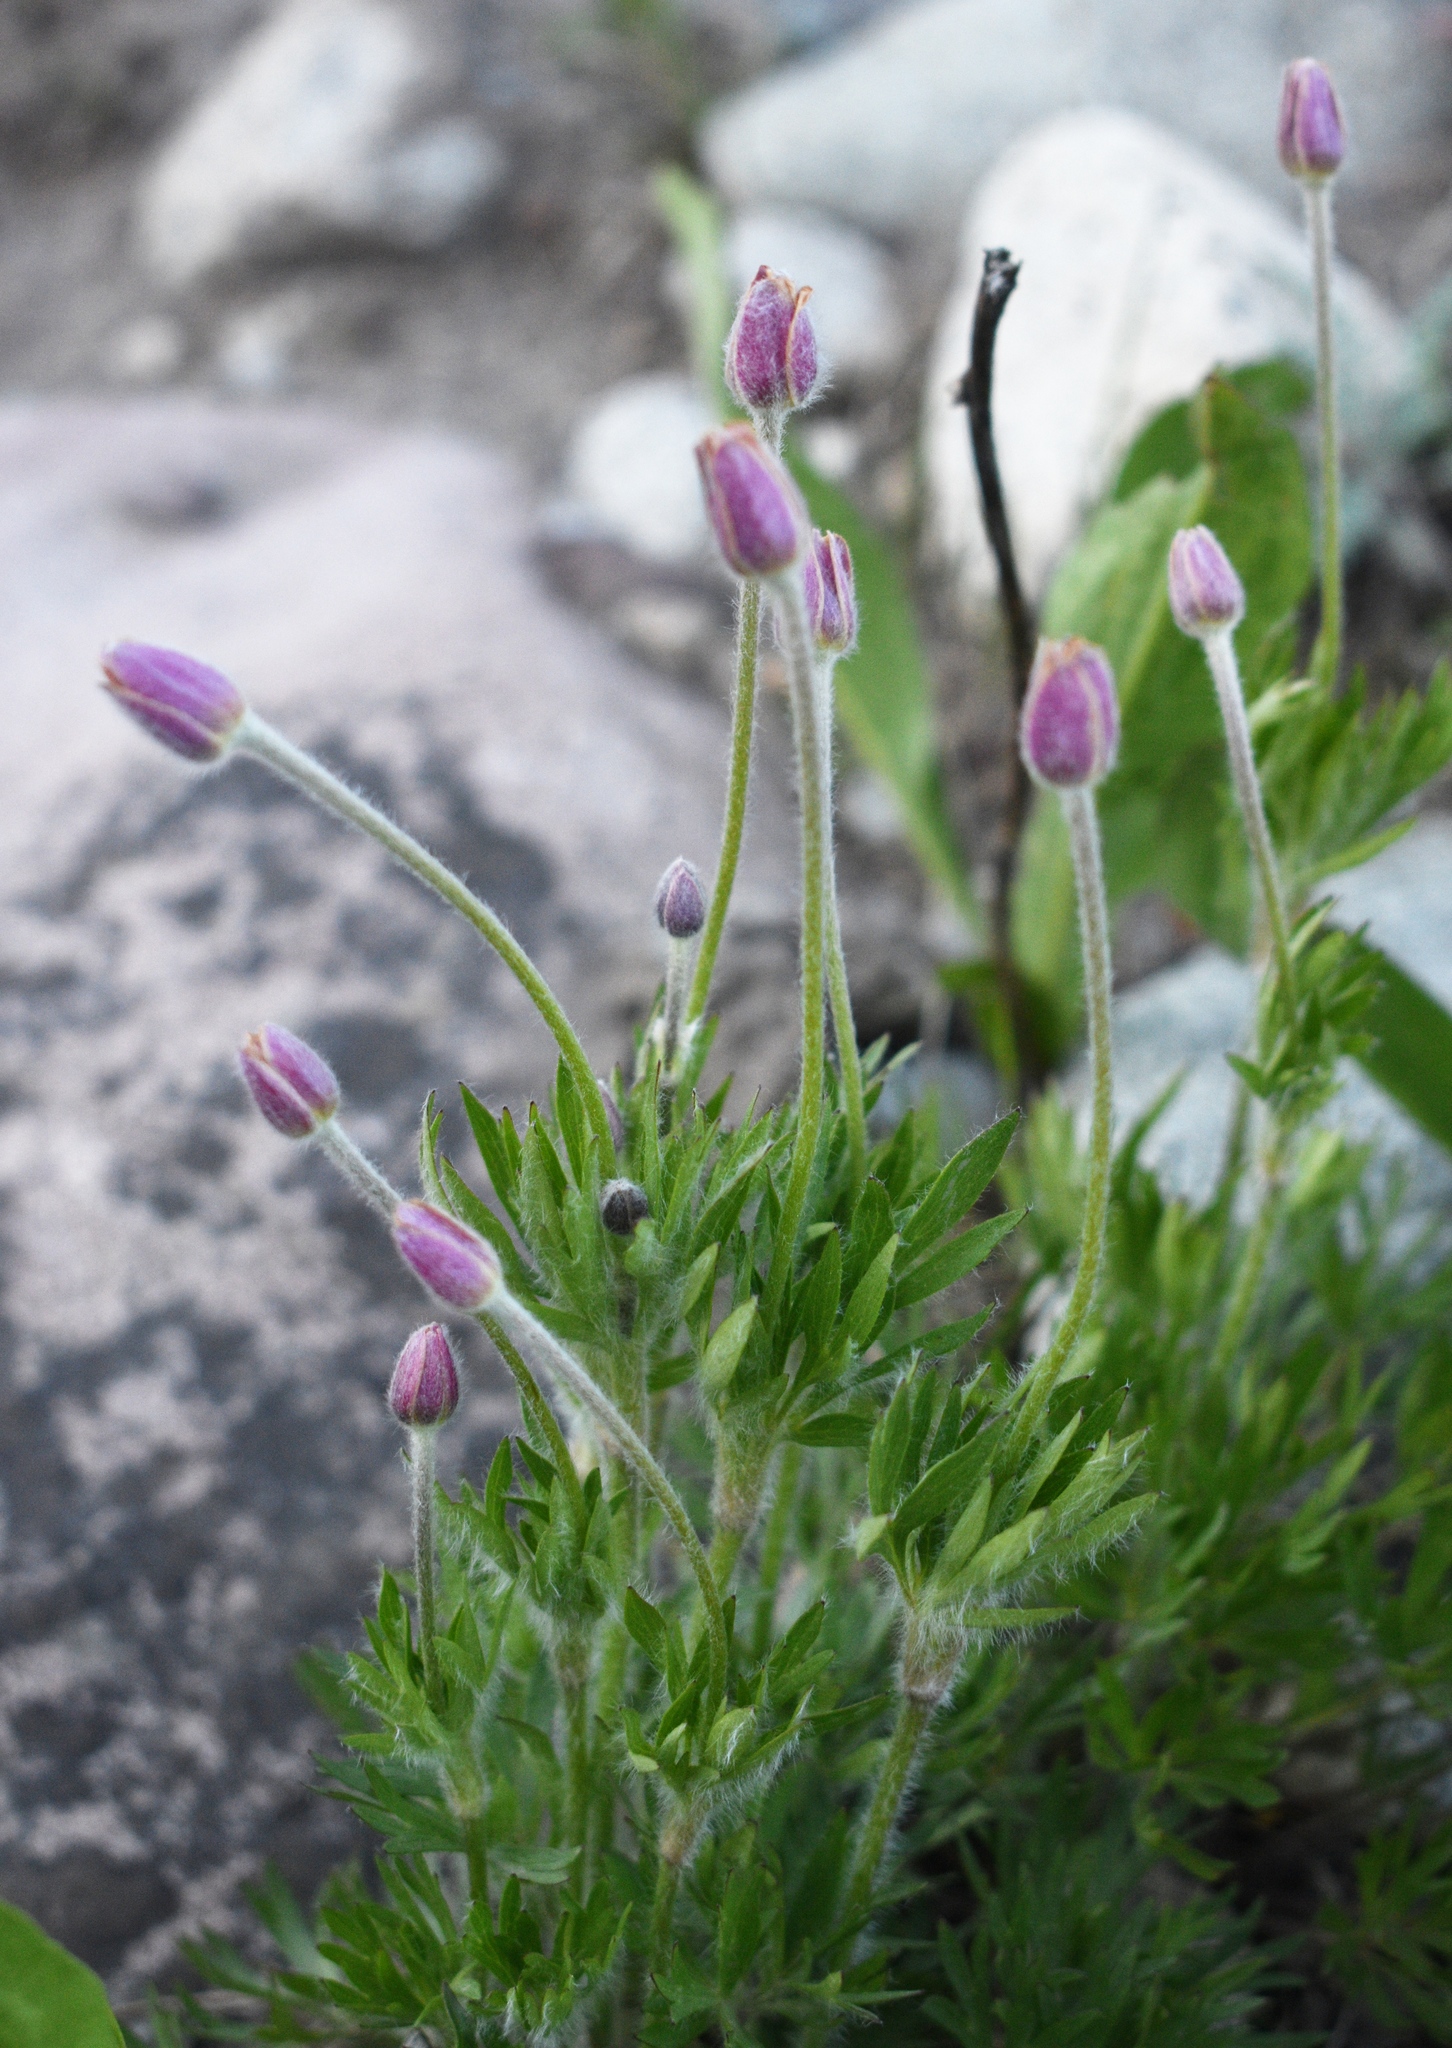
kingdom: Plantae
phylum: Tracheophyta
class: Magnoliopsida
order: Ranunculales
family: Ranunculaceae
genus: Anemone
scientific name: Anemone multifida
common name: Bird's-foot anemone
